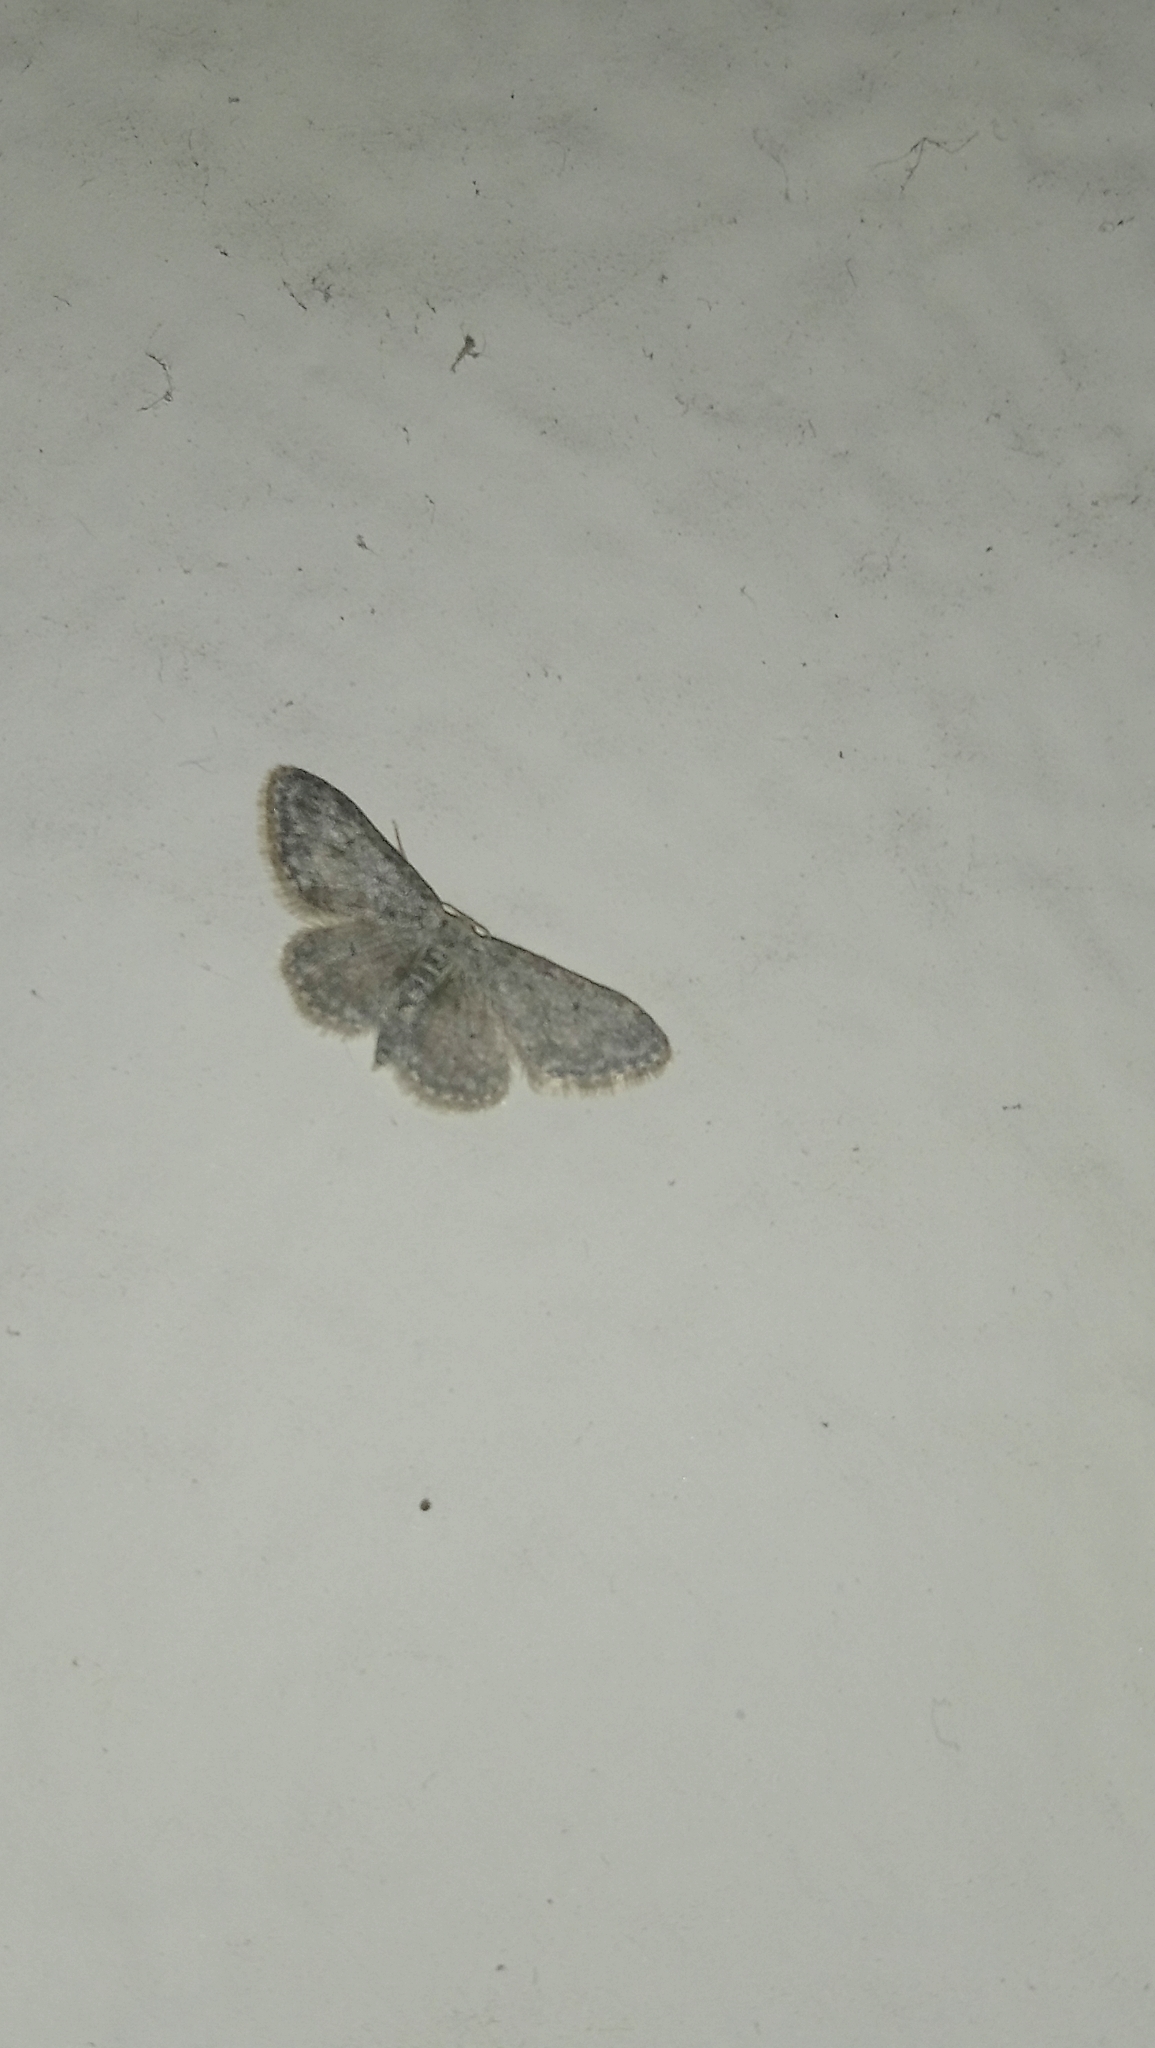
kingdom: Animalia
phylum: Arthropoda
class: Insecta
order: Lepidoptera
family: Geometridae
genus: Idaea
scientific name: Idaea seriata
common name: Small dusty wave
